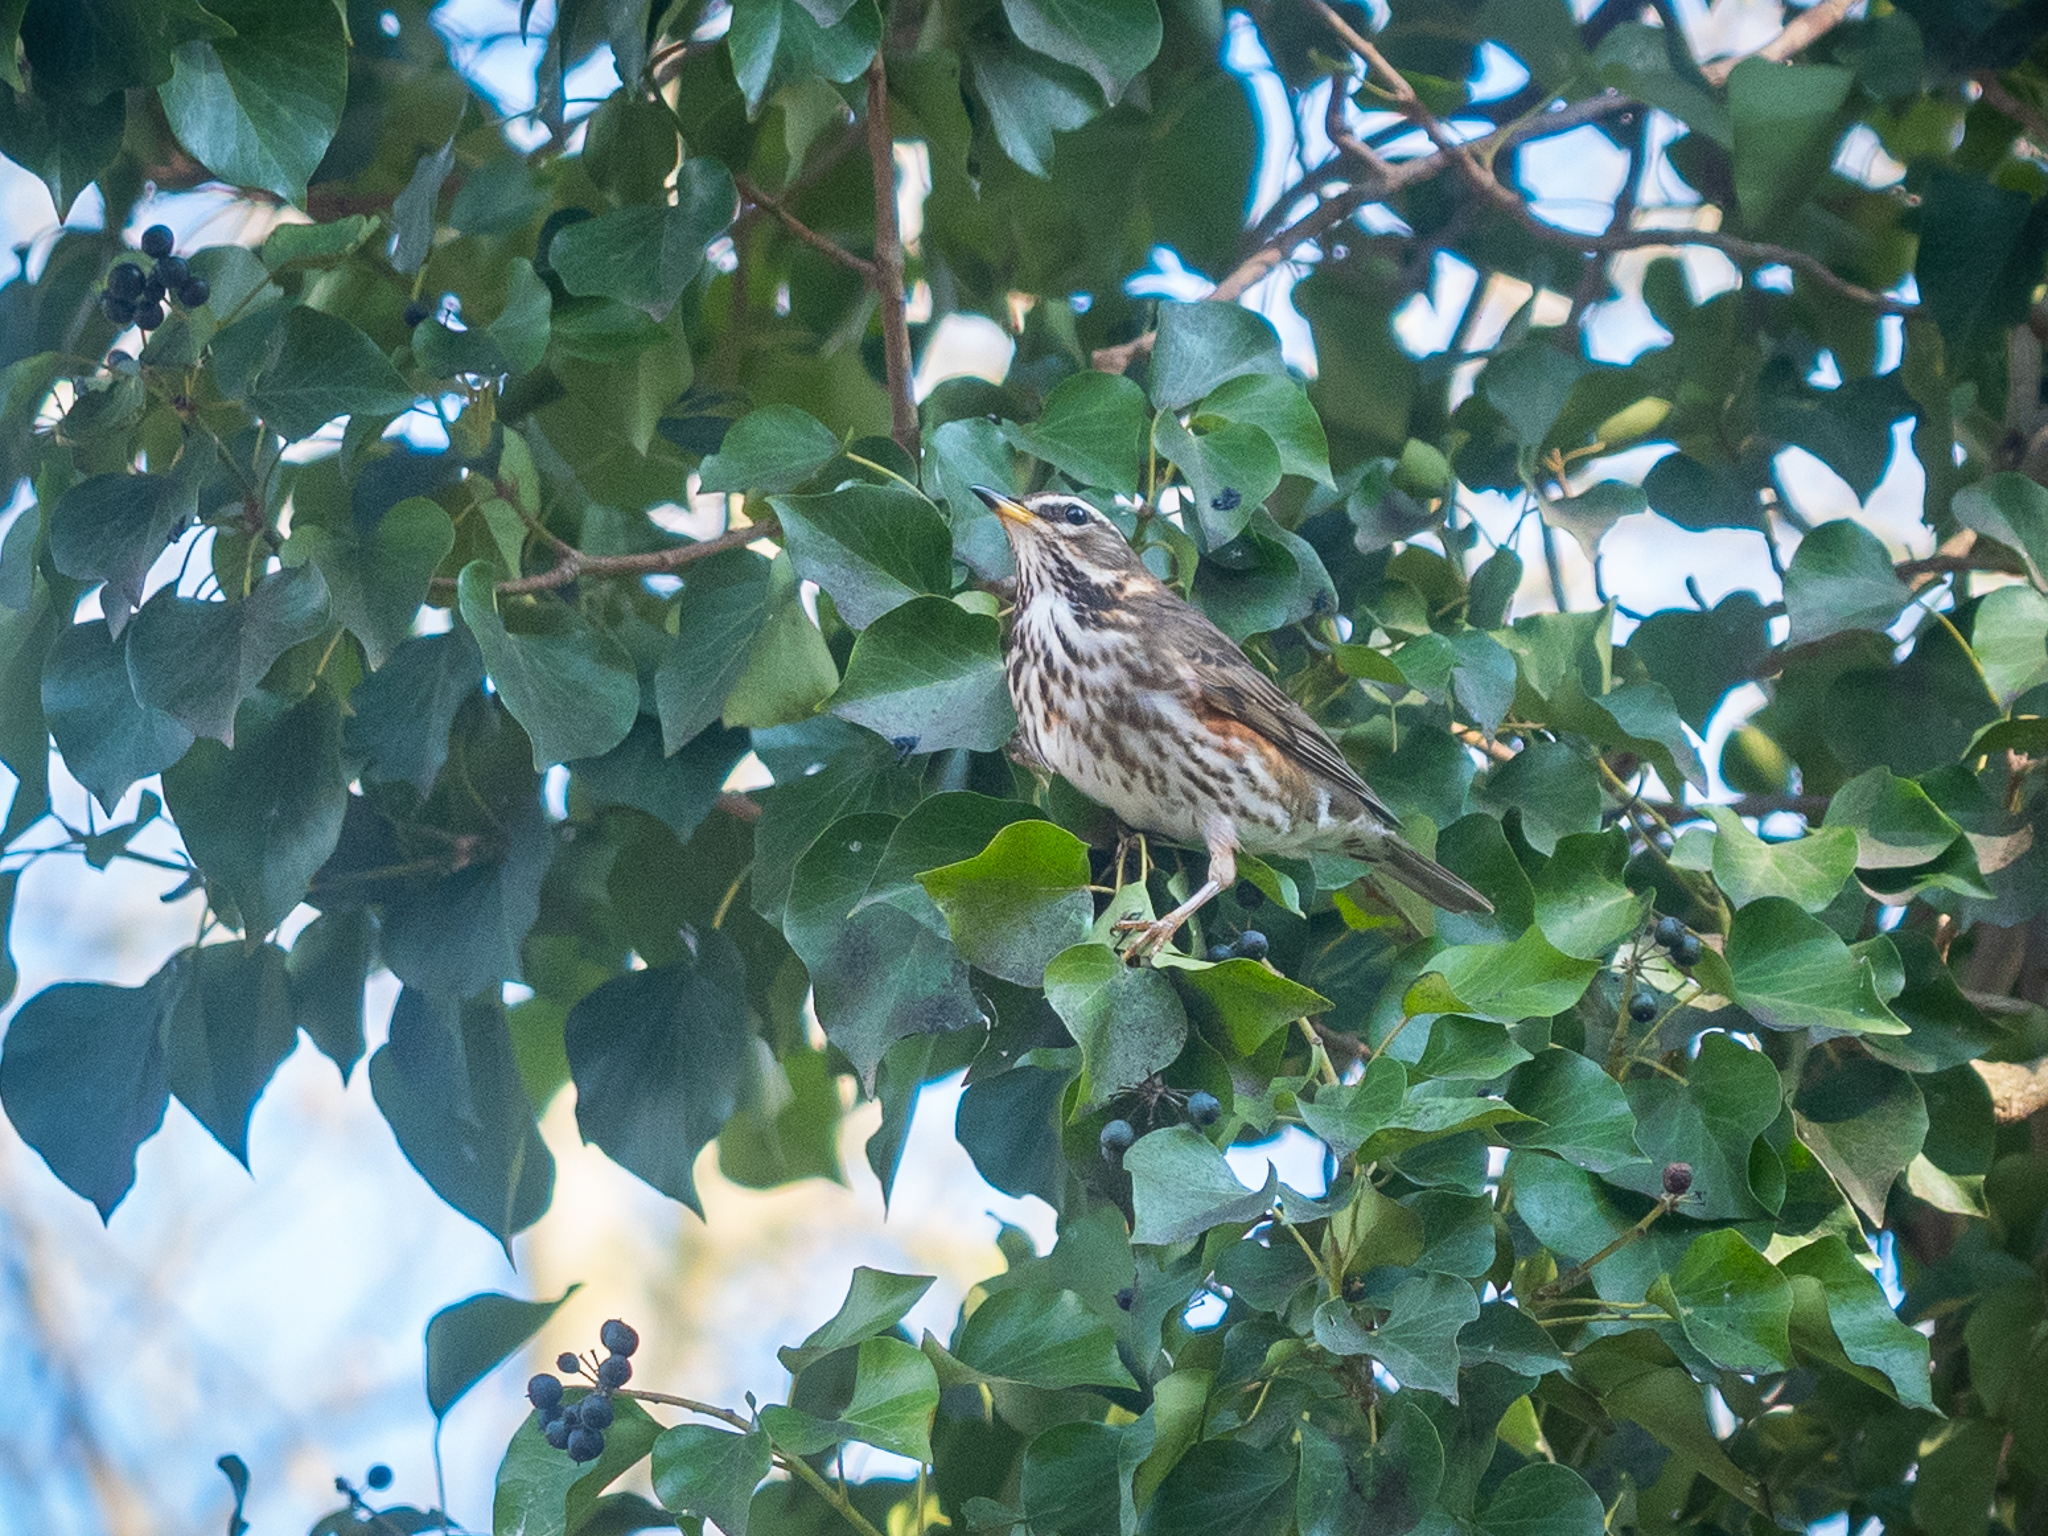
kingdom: Animalia
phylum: Chordata
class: Aves
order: Passeriformes
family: Turdidae
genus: Turdus
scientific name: Turdus iliacus
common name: Redwing
